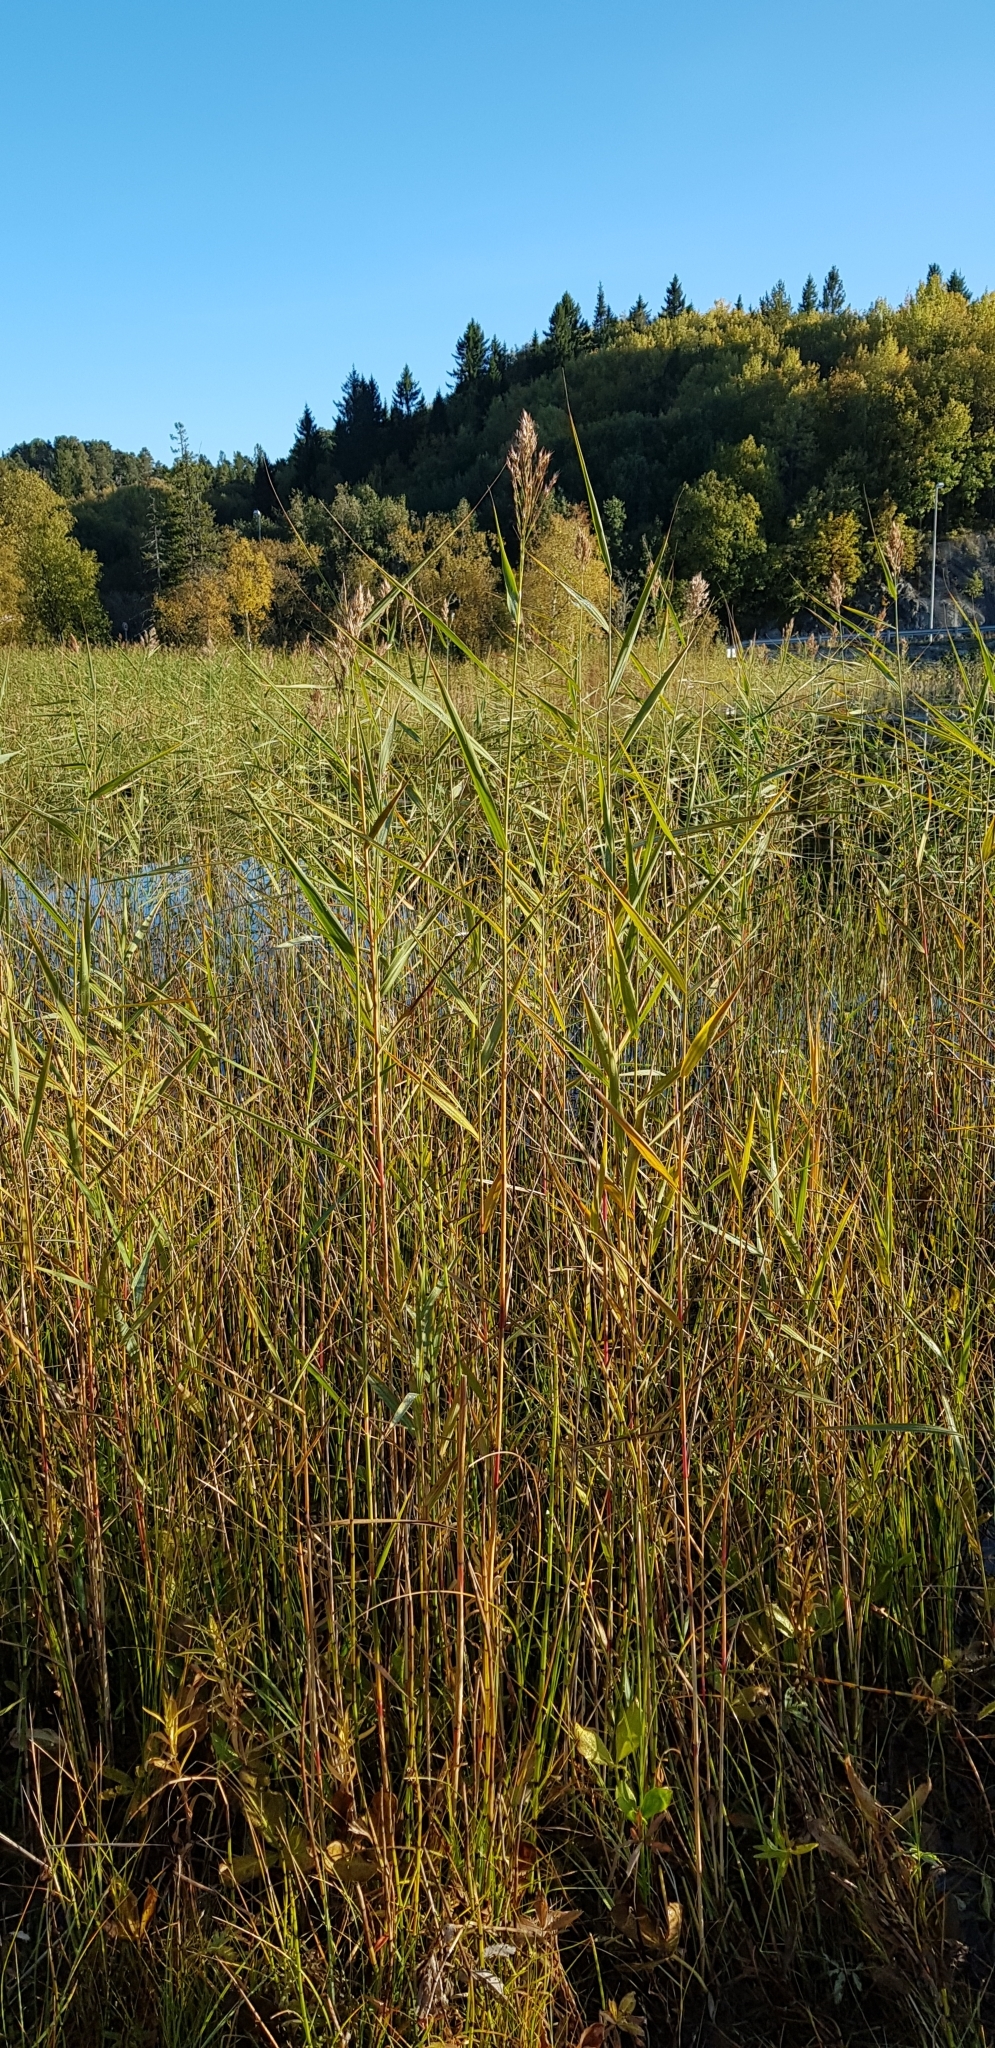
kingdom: Plantae
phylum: Tracheophyta
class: Liliopsida
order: Poales
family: Poaceae
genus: Phragmites
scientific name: Phragmites australis
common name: Common reed
